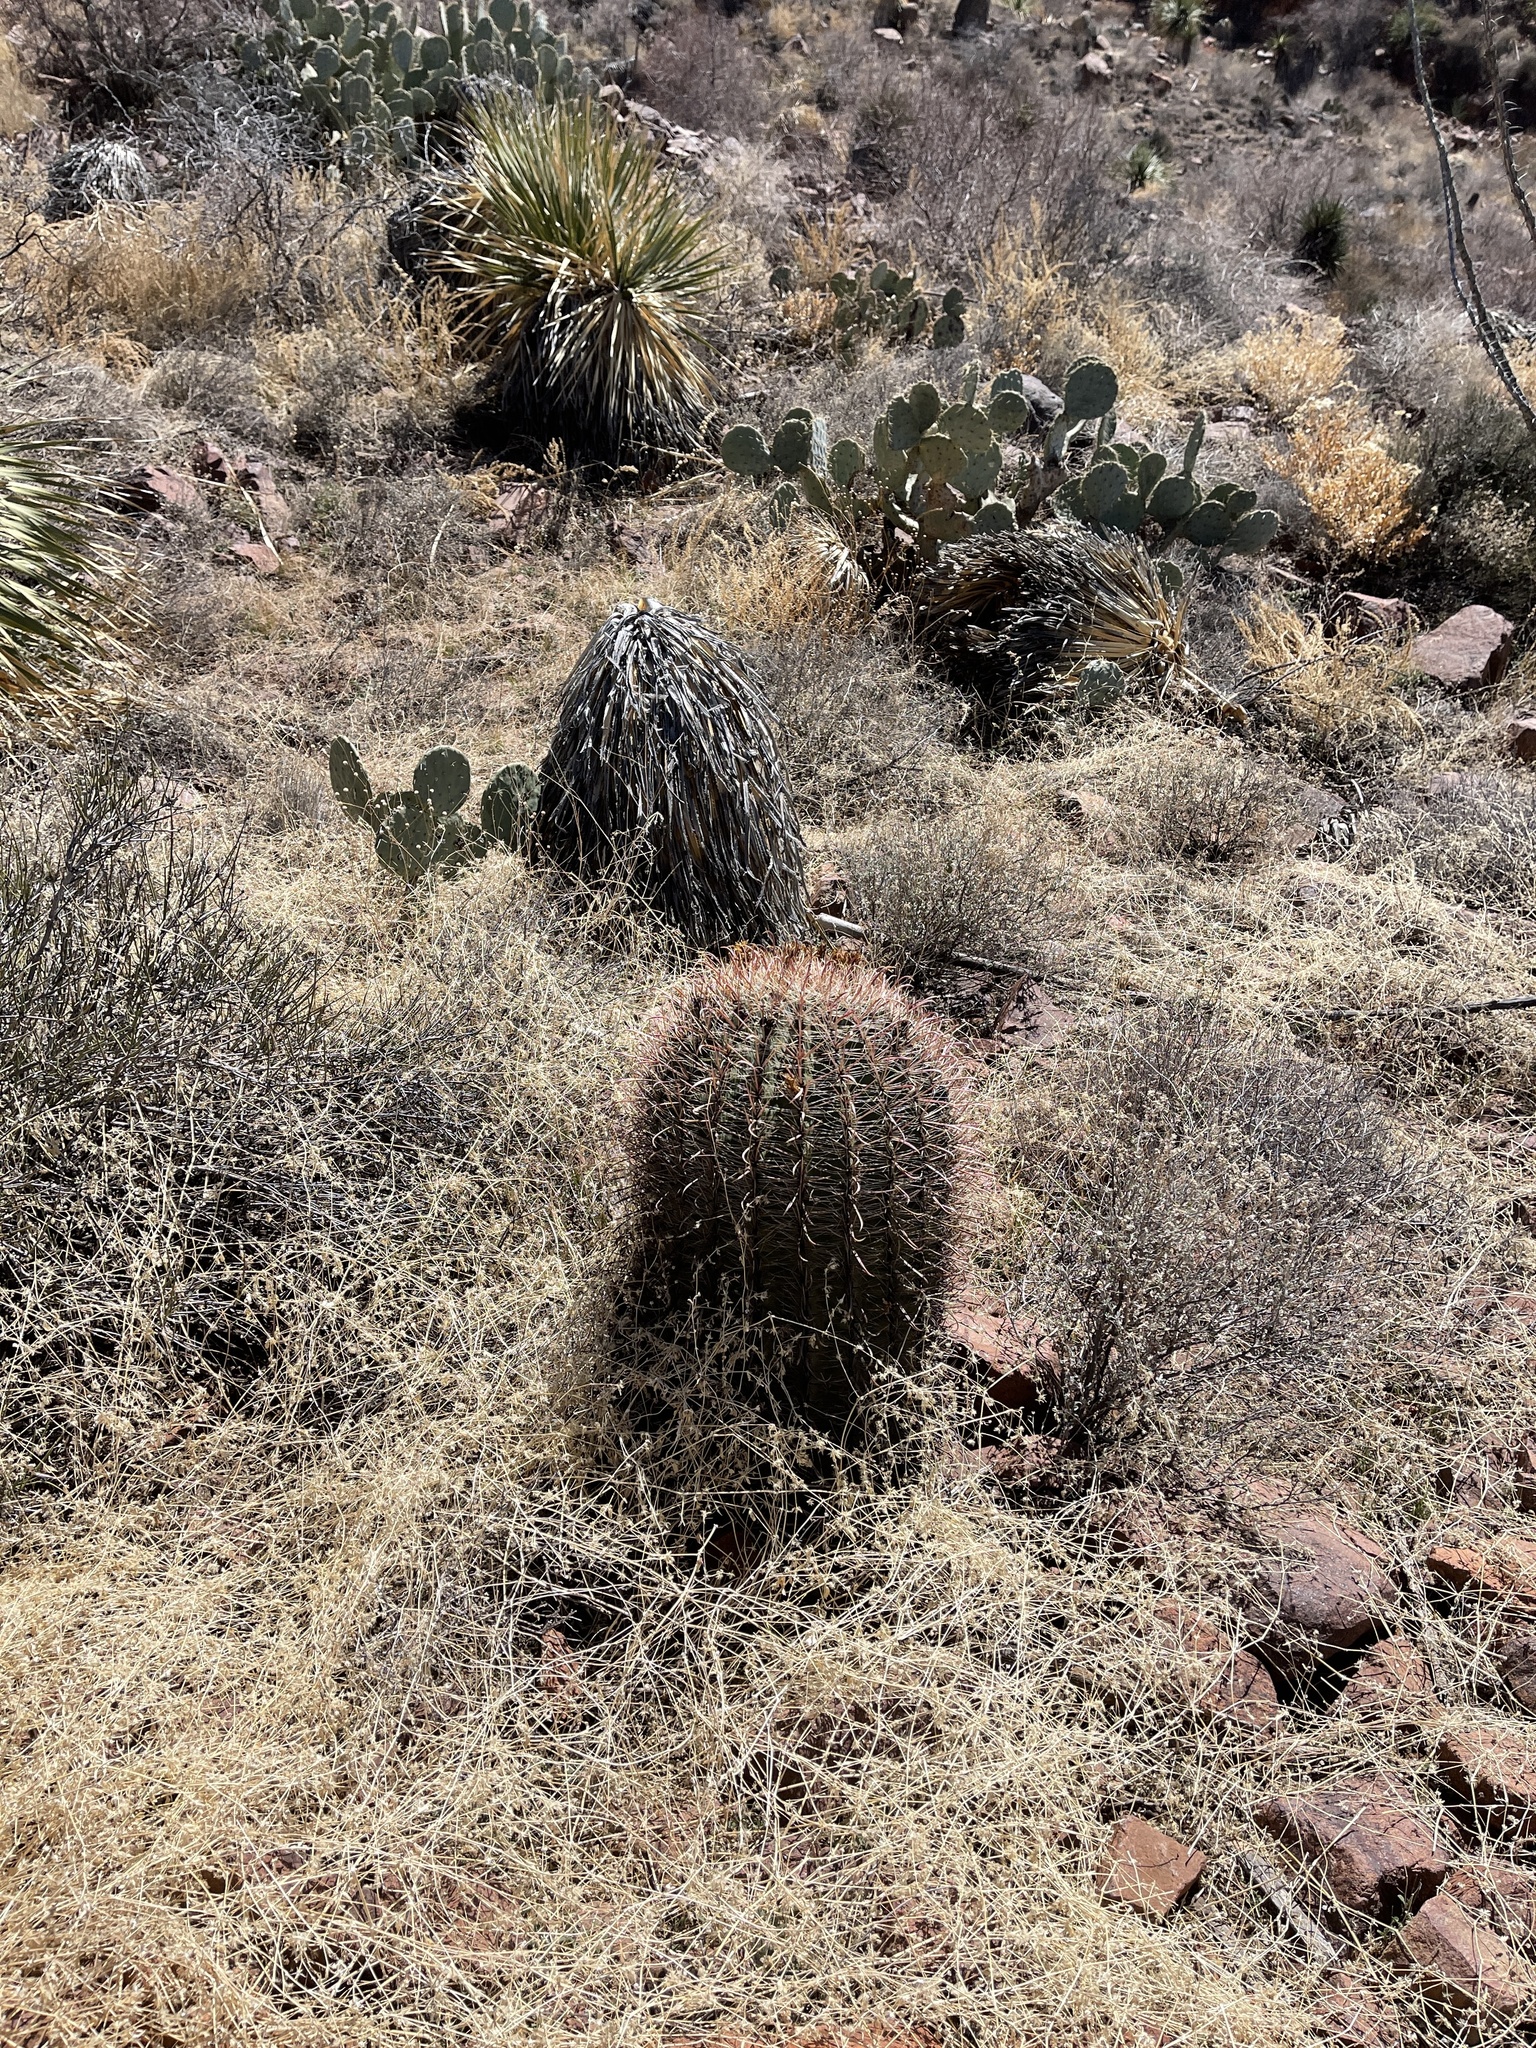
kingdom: Plantae
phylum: Tracheophyta
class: Magnoliopsida
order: Caryophyllales
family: Cactaceae
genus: Ferocactus
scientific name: Ferocactus wislizeni
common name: Candy barrel cactus
